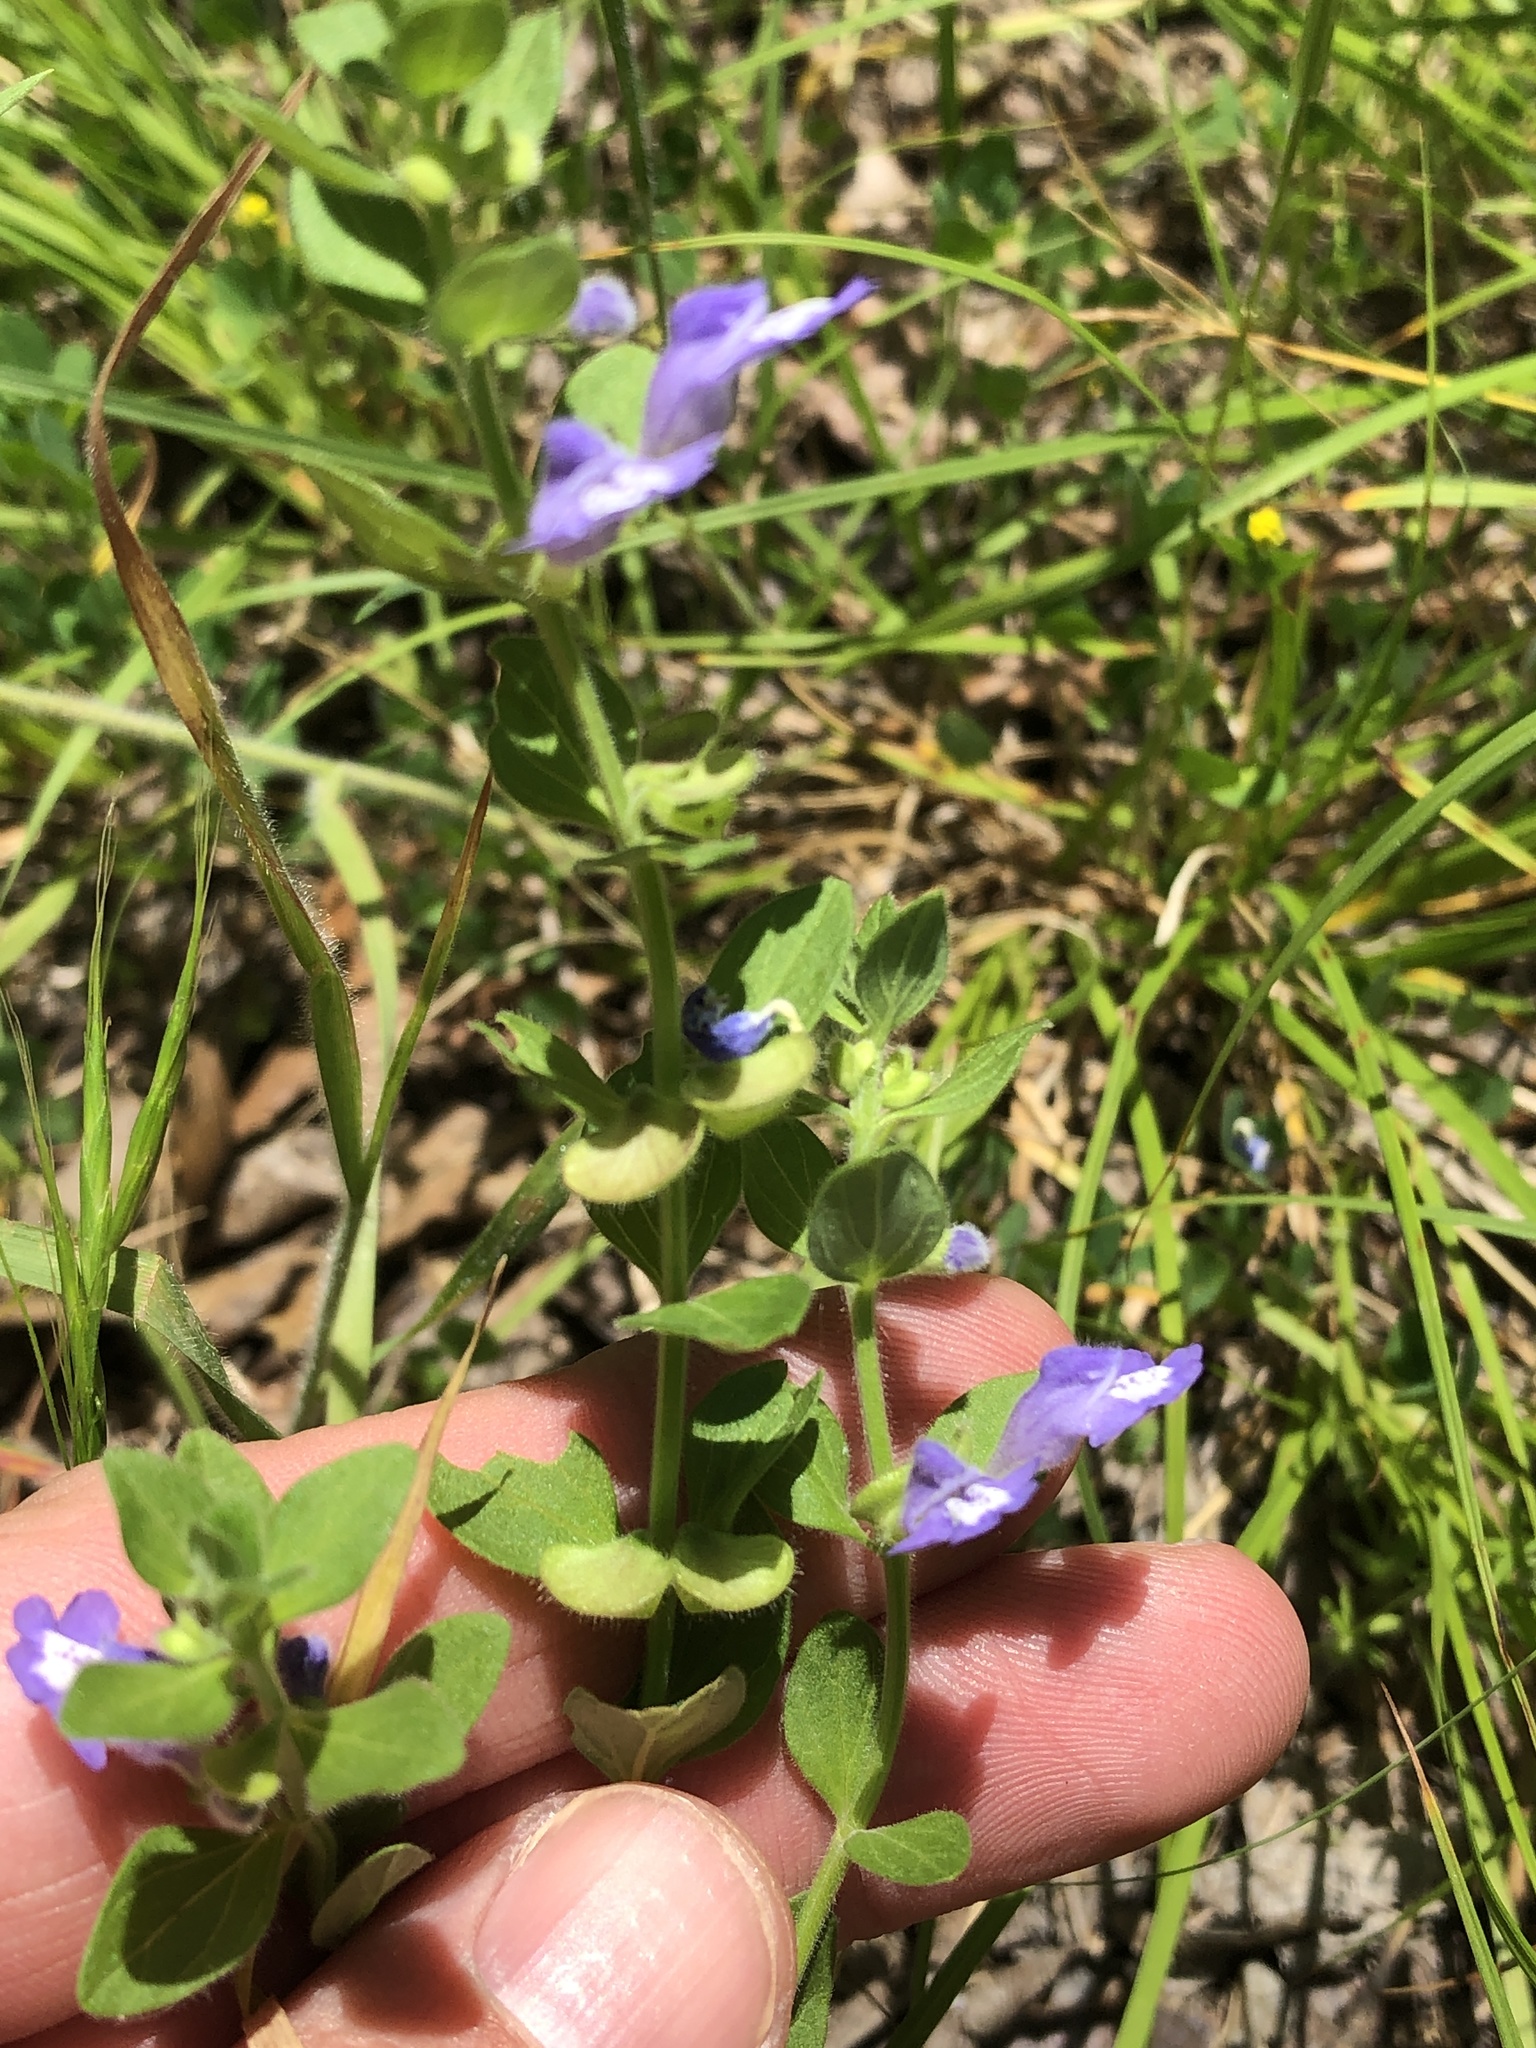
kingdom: Plantae
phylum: Tracheophyta
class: Magnoliopsida
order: Lamiales
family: Lamiaceae
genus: Scutellaria
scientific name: Scutellaria drummondii
